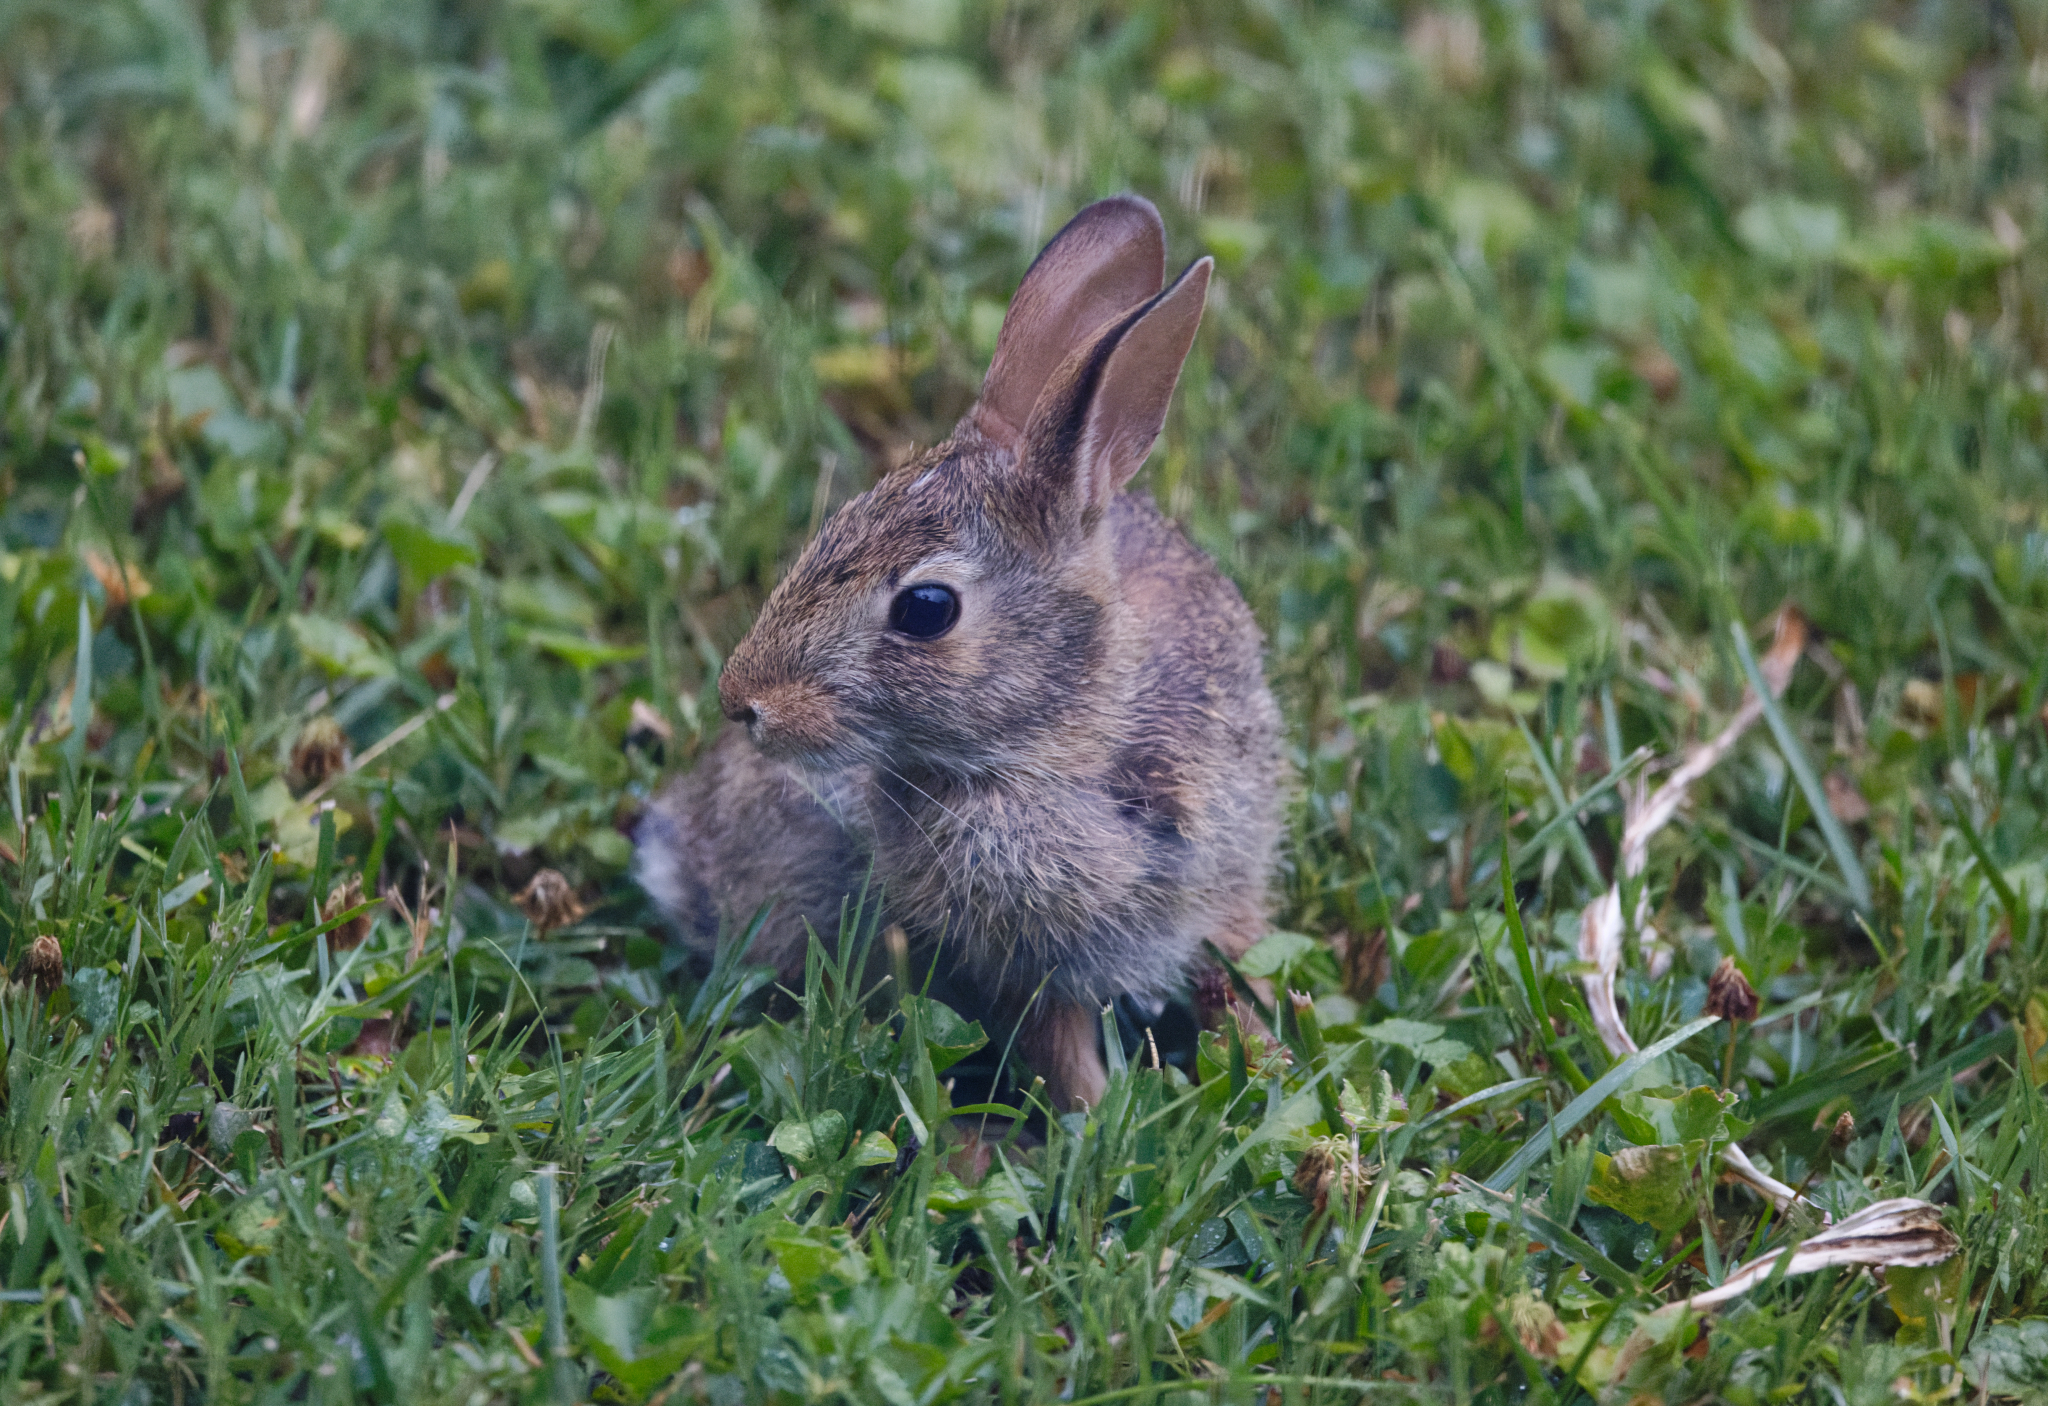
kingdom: Animalia
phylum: Chordata
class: Mammalia
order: Lagomorpha
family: Leporidae
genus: Sylvilagus
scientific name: Sylvilagus floridanus
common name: Eastern cottontail
